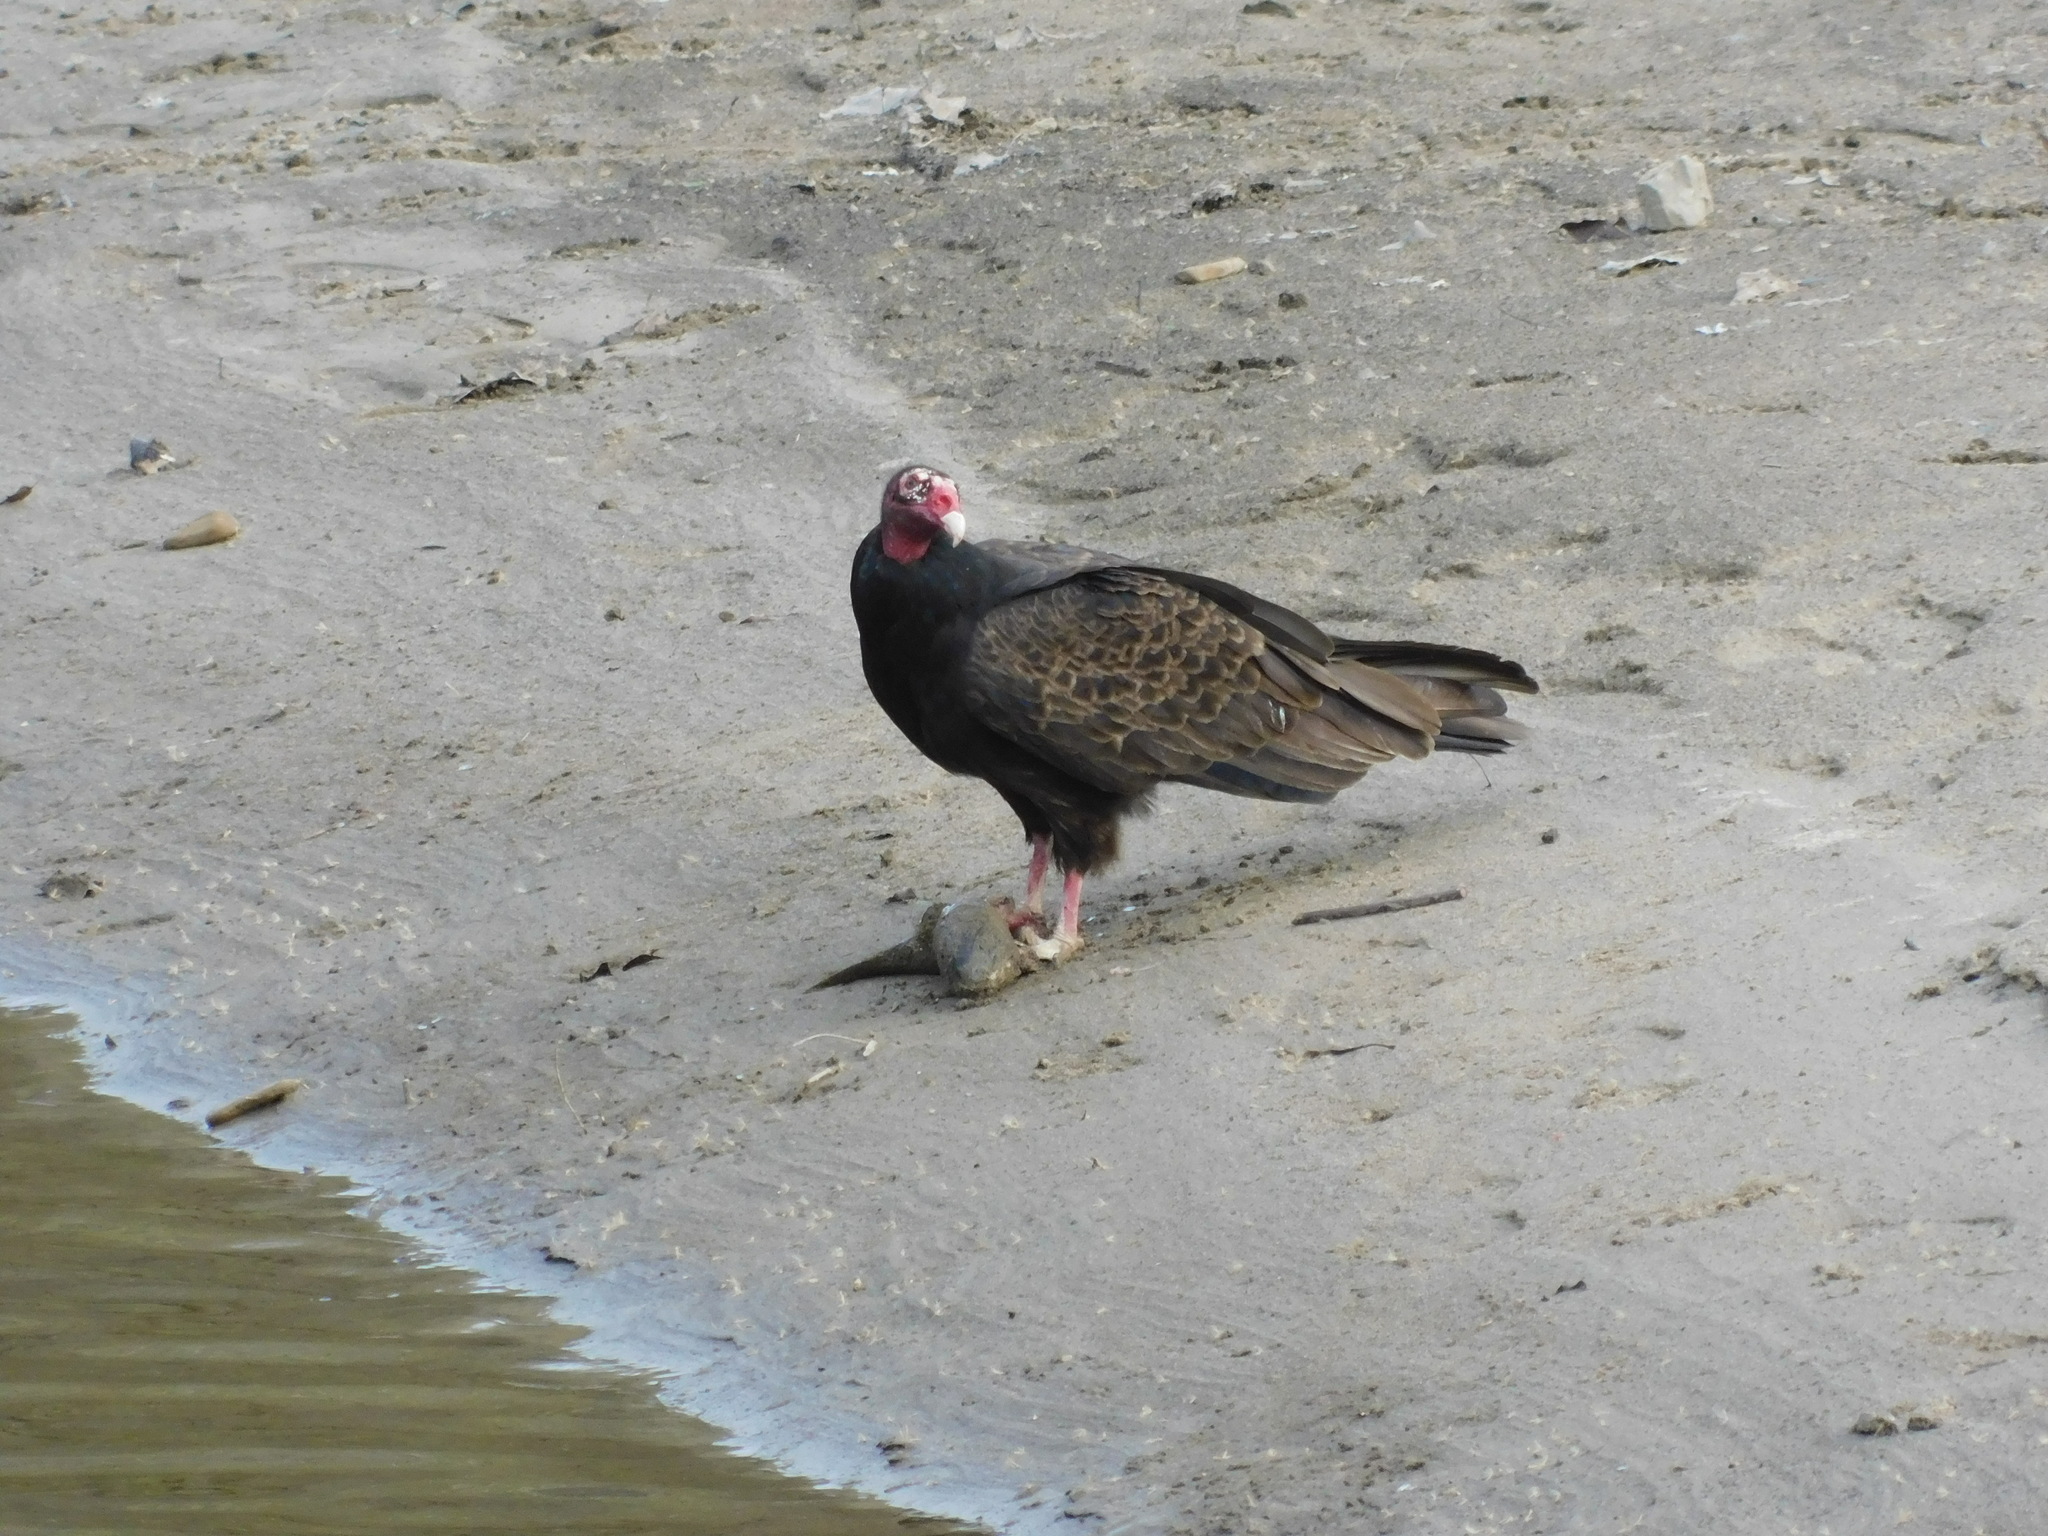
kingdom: Animalia
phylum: Chordata
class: Aves
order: Accipitriformes
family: Cathartidae
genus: Cathartes
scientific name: Cathartes aura
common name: Turkey vulture
